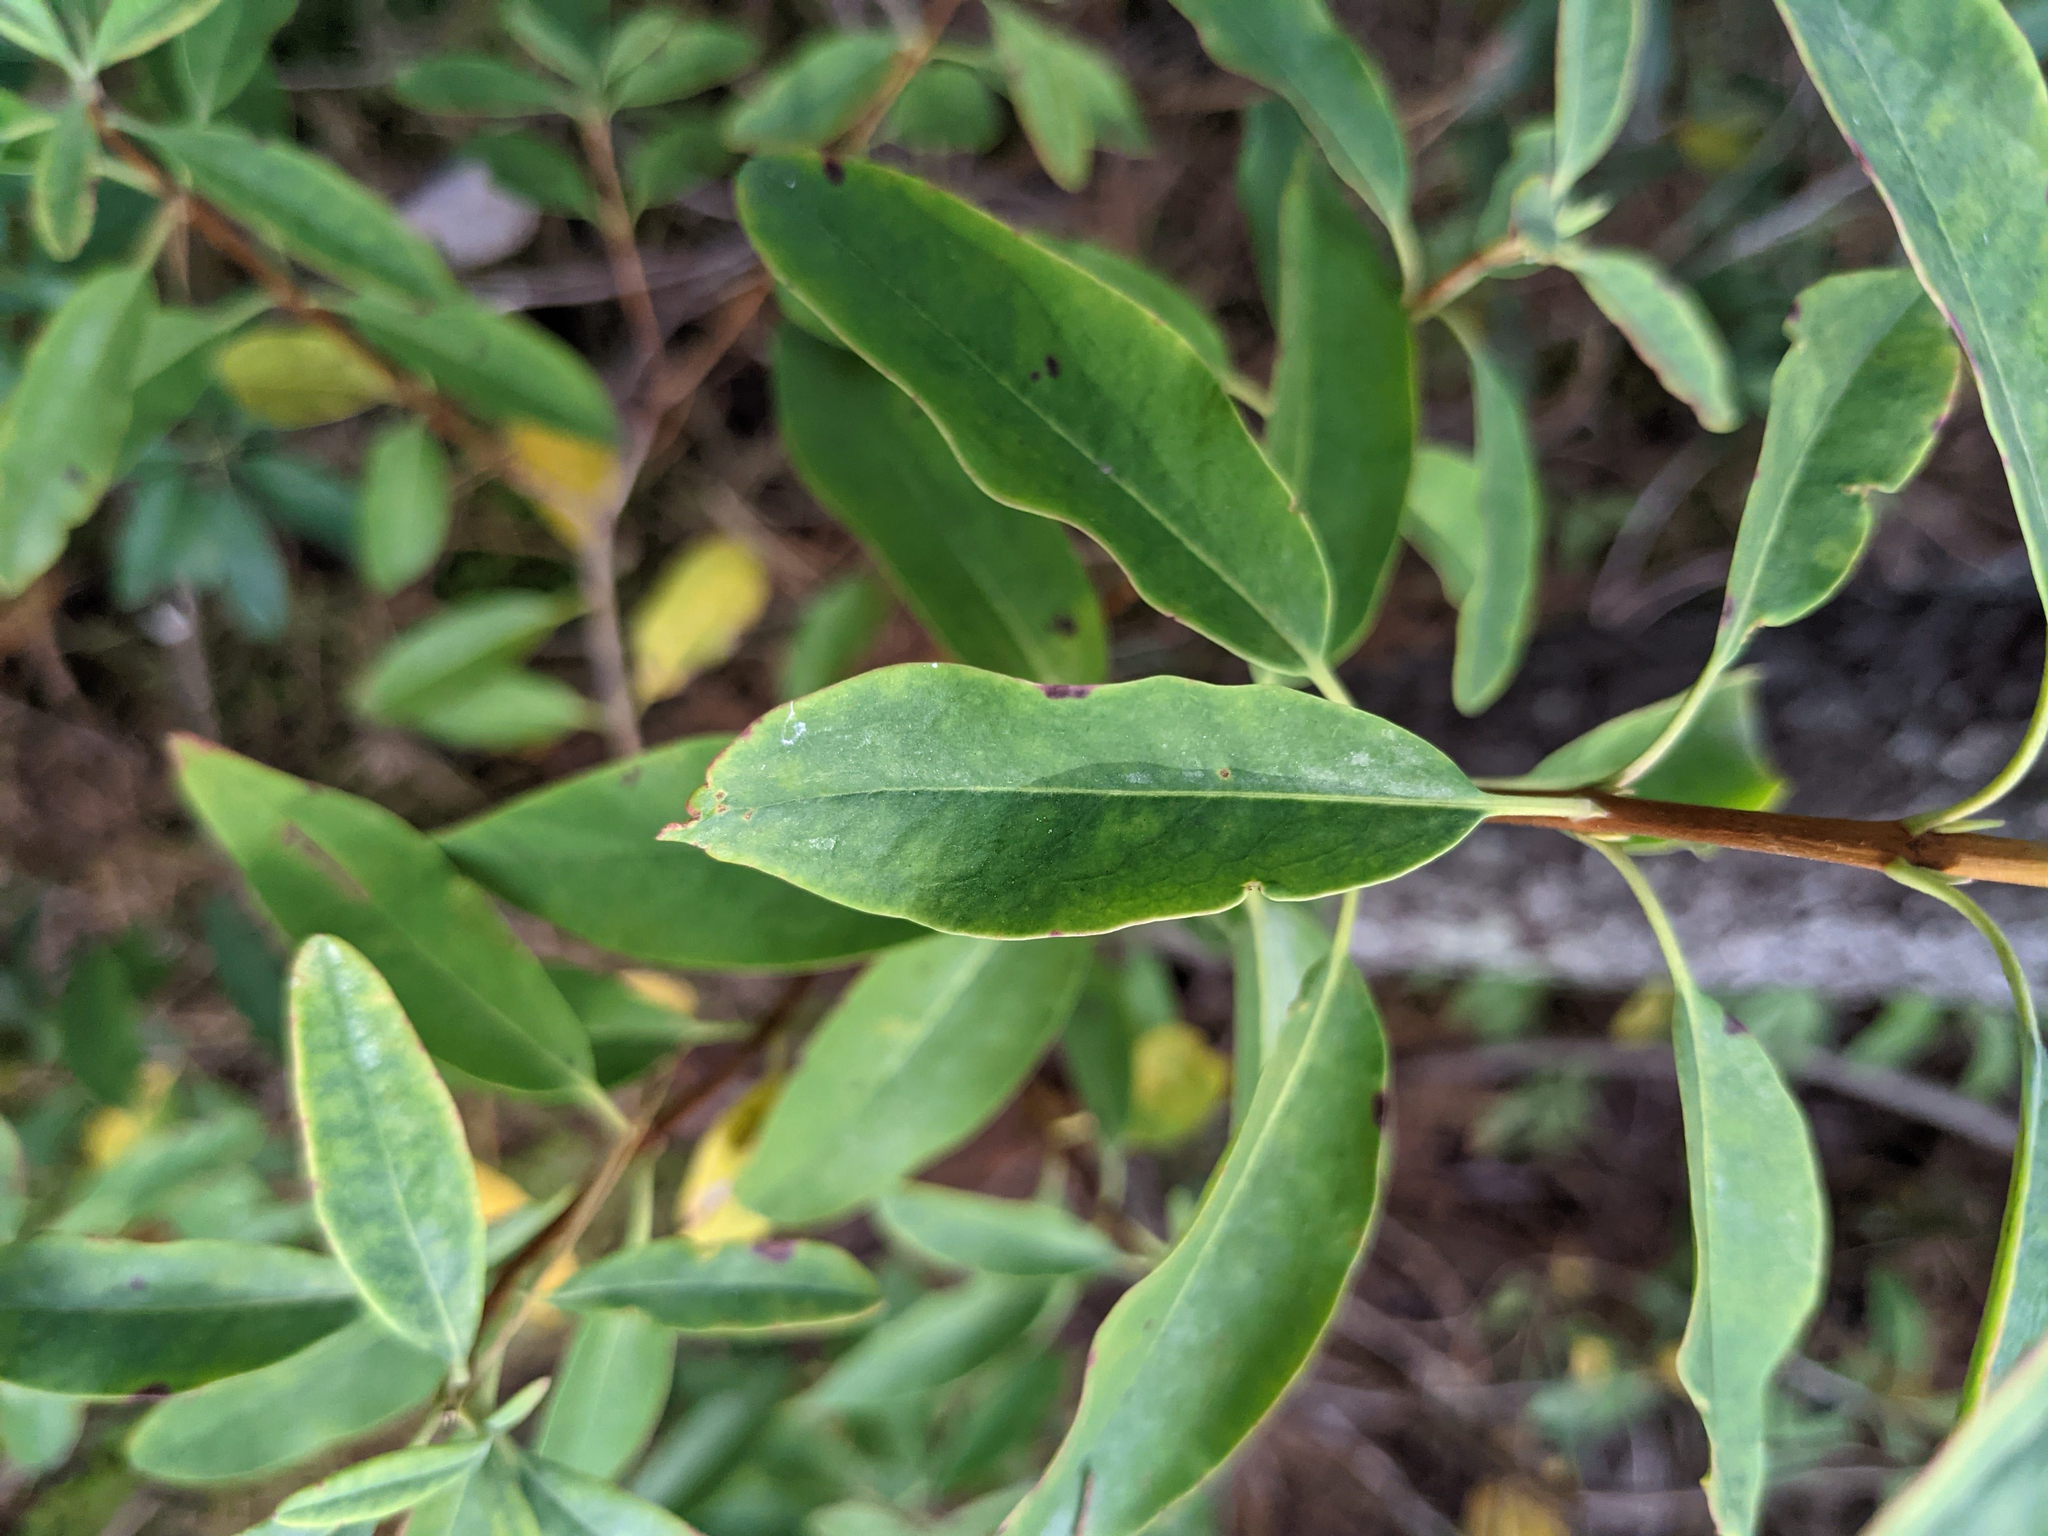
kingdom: Plantae
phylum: Tracheophyta
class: Magnoliopsida
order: Ericales
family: Ericaceae
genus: Kalmia
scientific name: Kalmia angustifolia
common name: Sheep-laurel
